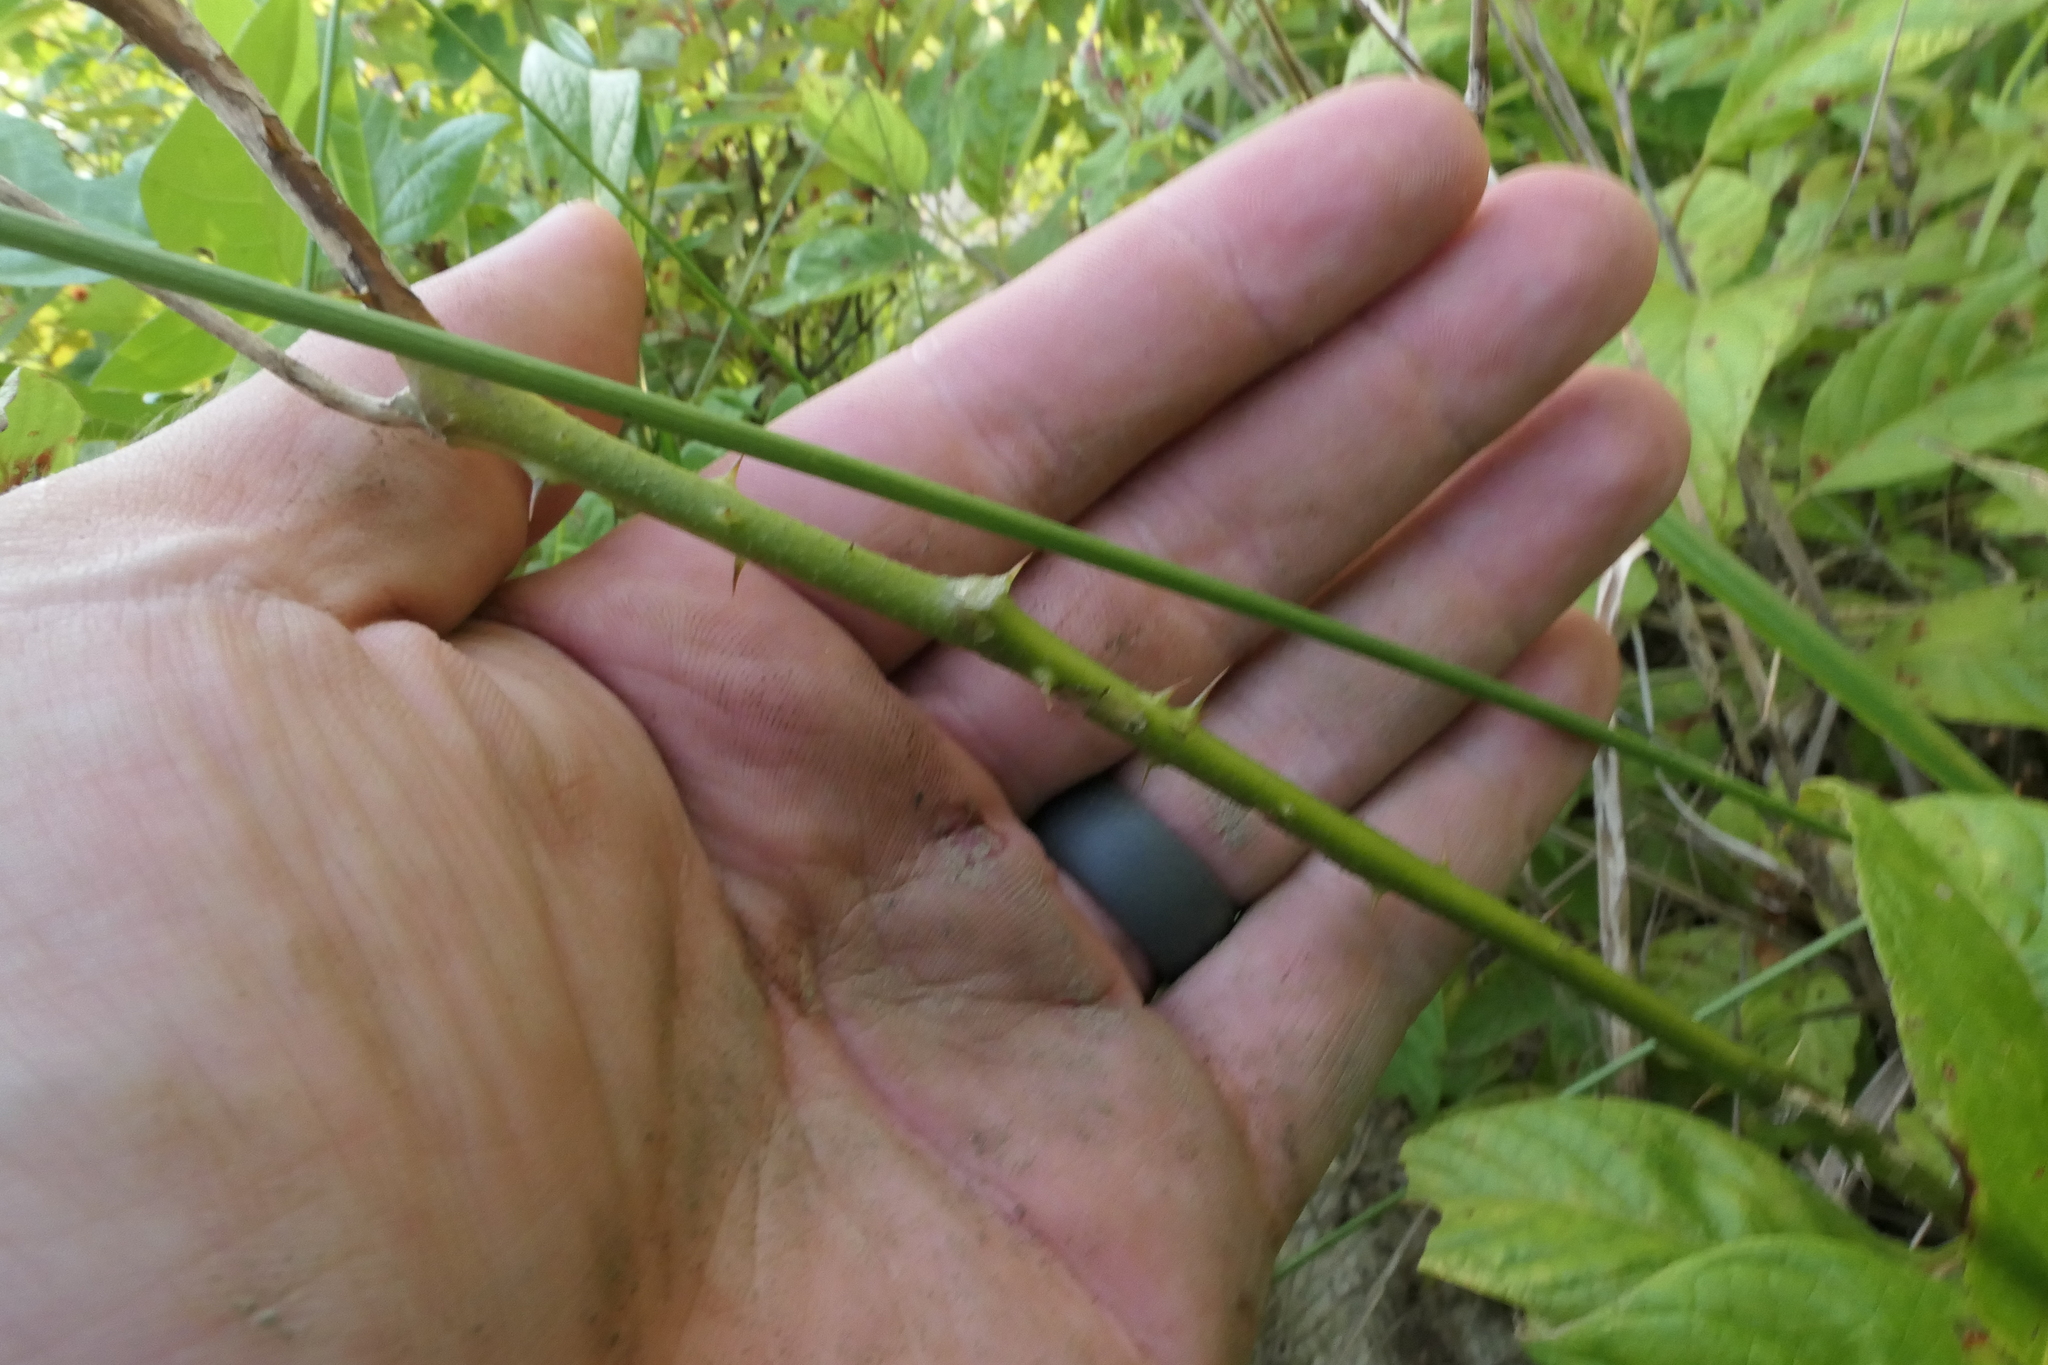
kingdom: Plantae
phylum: Tracheophyta
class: Magnoliopsida
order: Solanales
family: Solanaceae
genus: Solanum
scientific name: Solanum carolinense
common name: Horse-nettle
